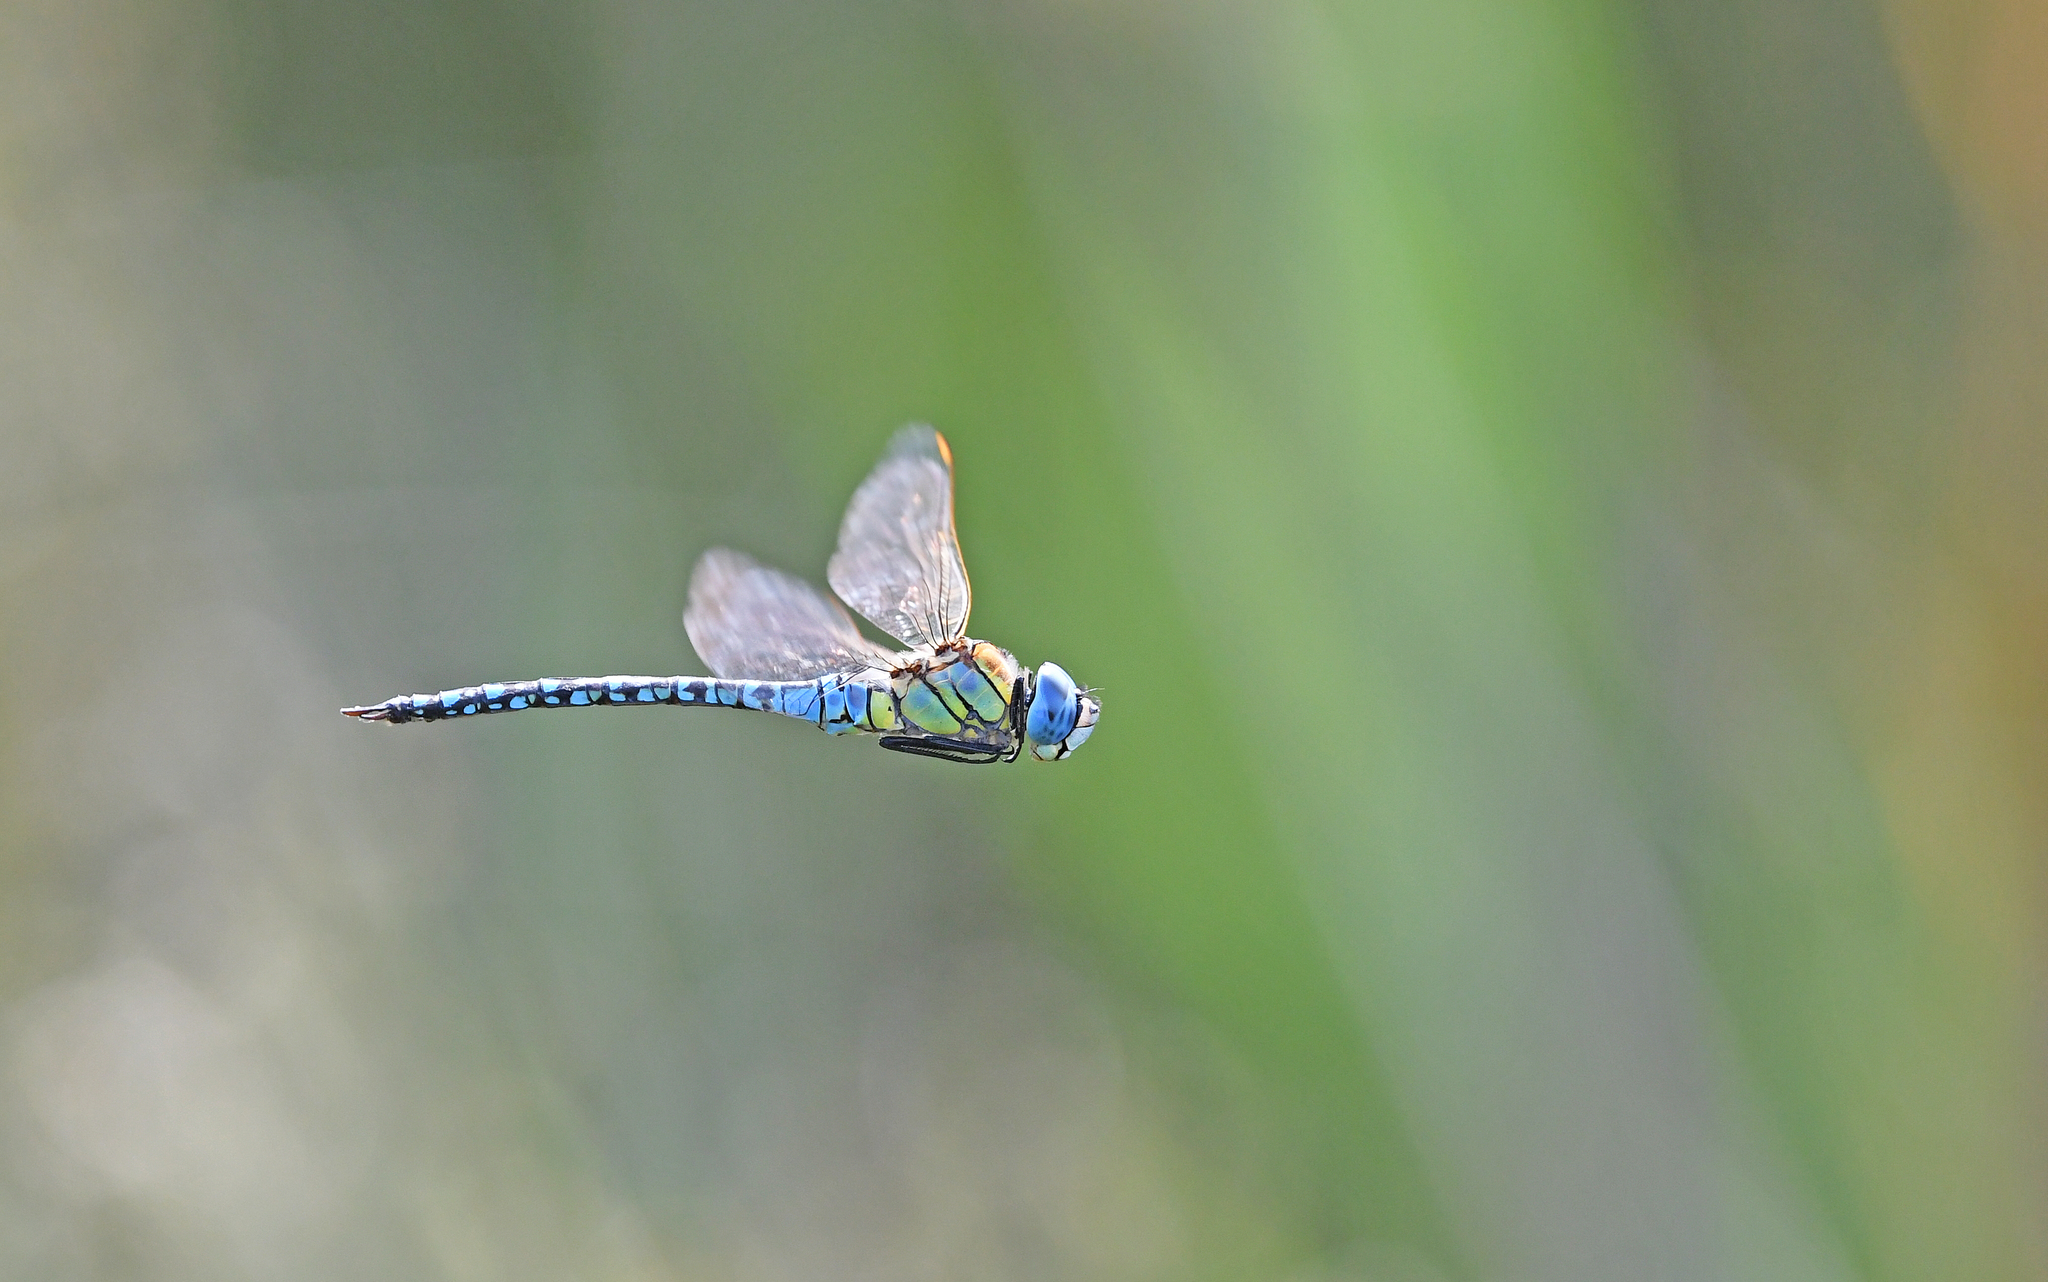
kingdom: Animalia
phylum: Arthropoda
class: Insecta
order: Odonata
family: Aeshnidae
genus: Aeshna
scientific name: Aeshna affinis
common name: Southern migrant hawker
